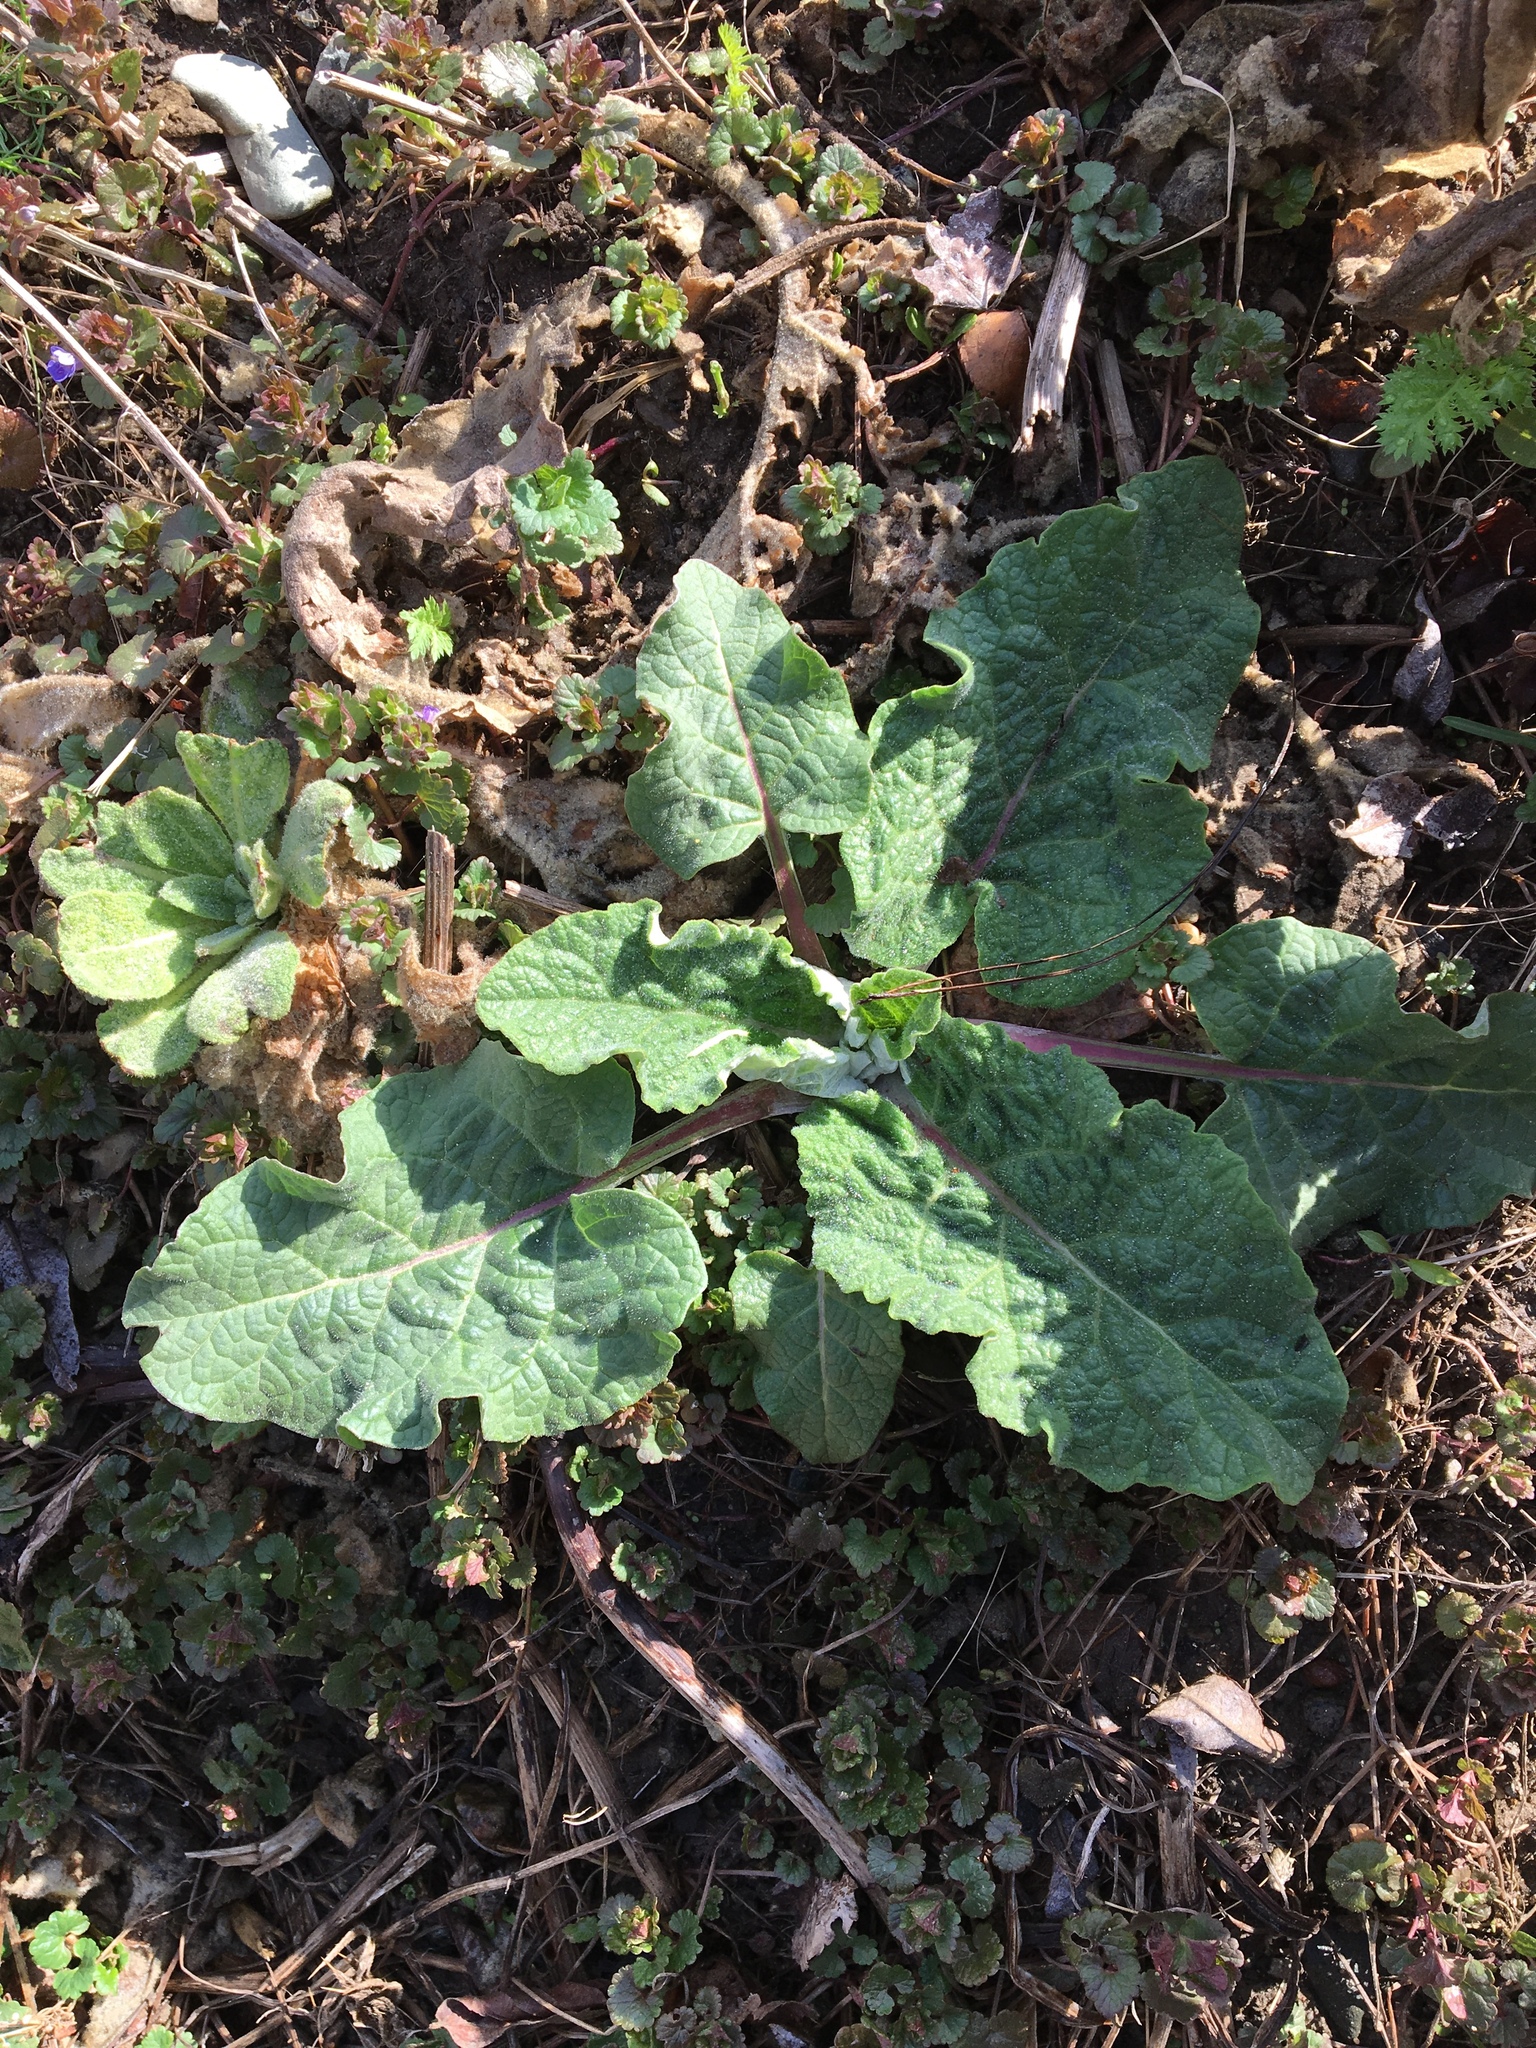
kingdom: Plantae
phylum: Tracheophyta
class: Magnoliopsida
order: Asterales
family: Asteraceae
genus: Arctium
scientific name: Arctium
